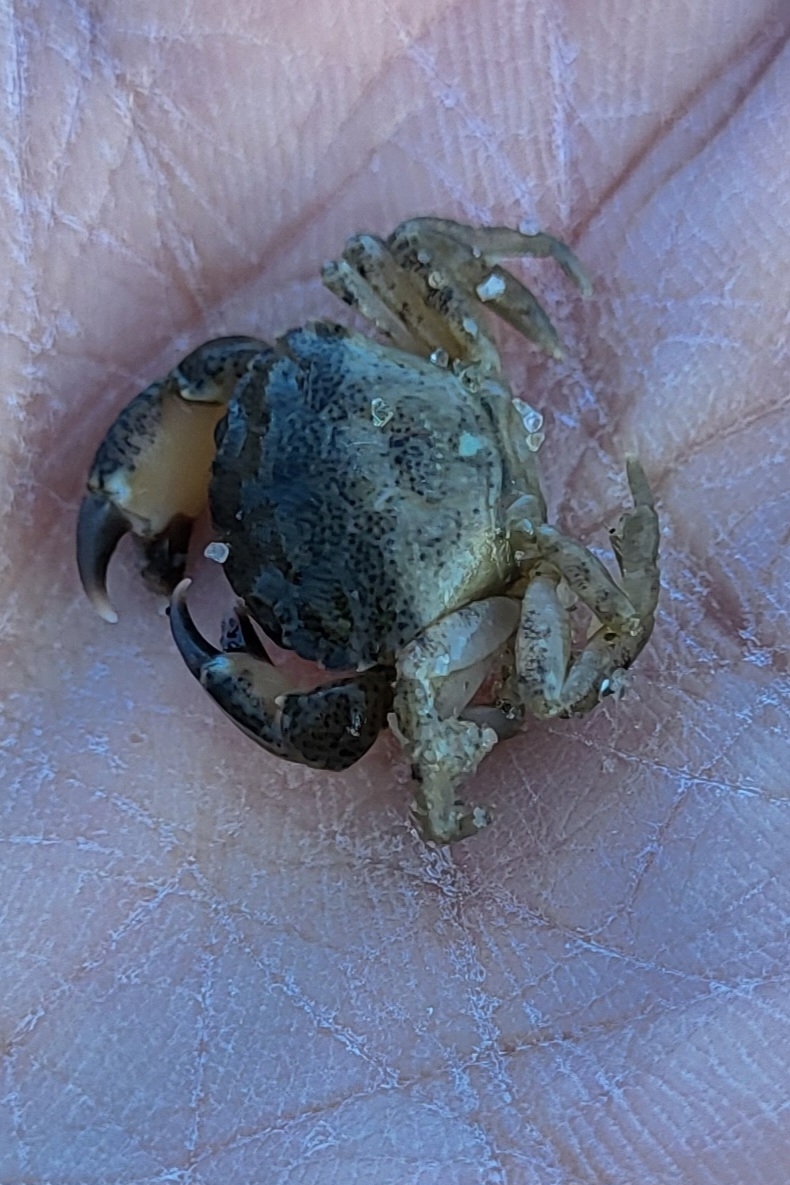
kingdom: Animalia
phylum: Arthropoda
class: Malacostraca
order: Decapoda
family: Panopeidae
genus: Dyspanopeus
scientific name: Dyspanopeus sayi
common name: Say mud crab
